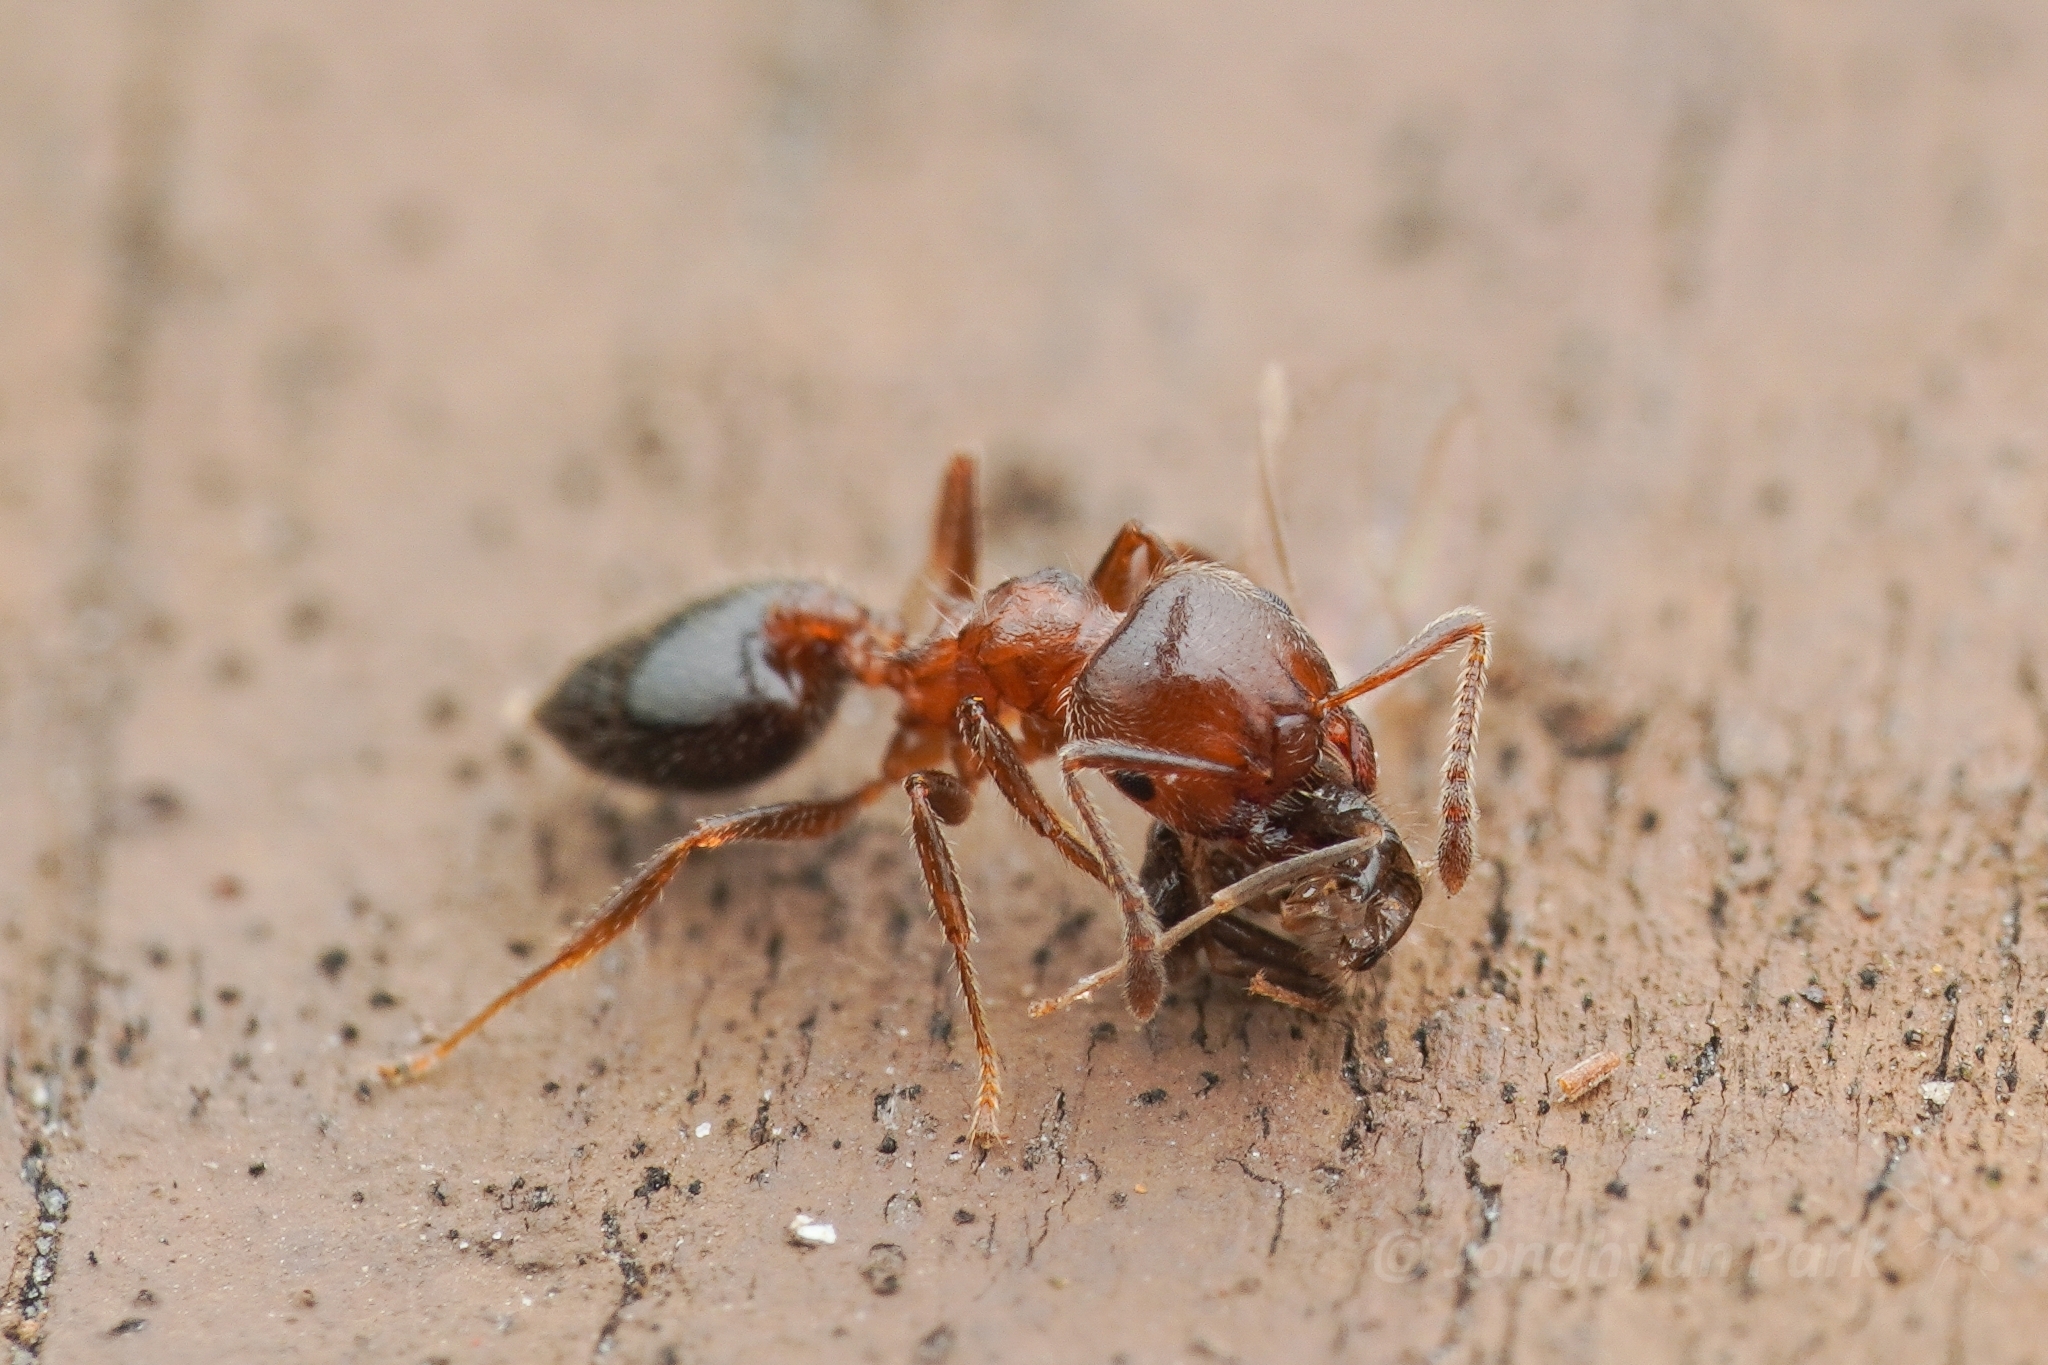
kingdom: Animalia
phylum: Arthropoda
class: Insecta
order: Hymenoptera
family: Formicidae
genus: Crematogaster
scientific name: Crematogaster matsumurai
